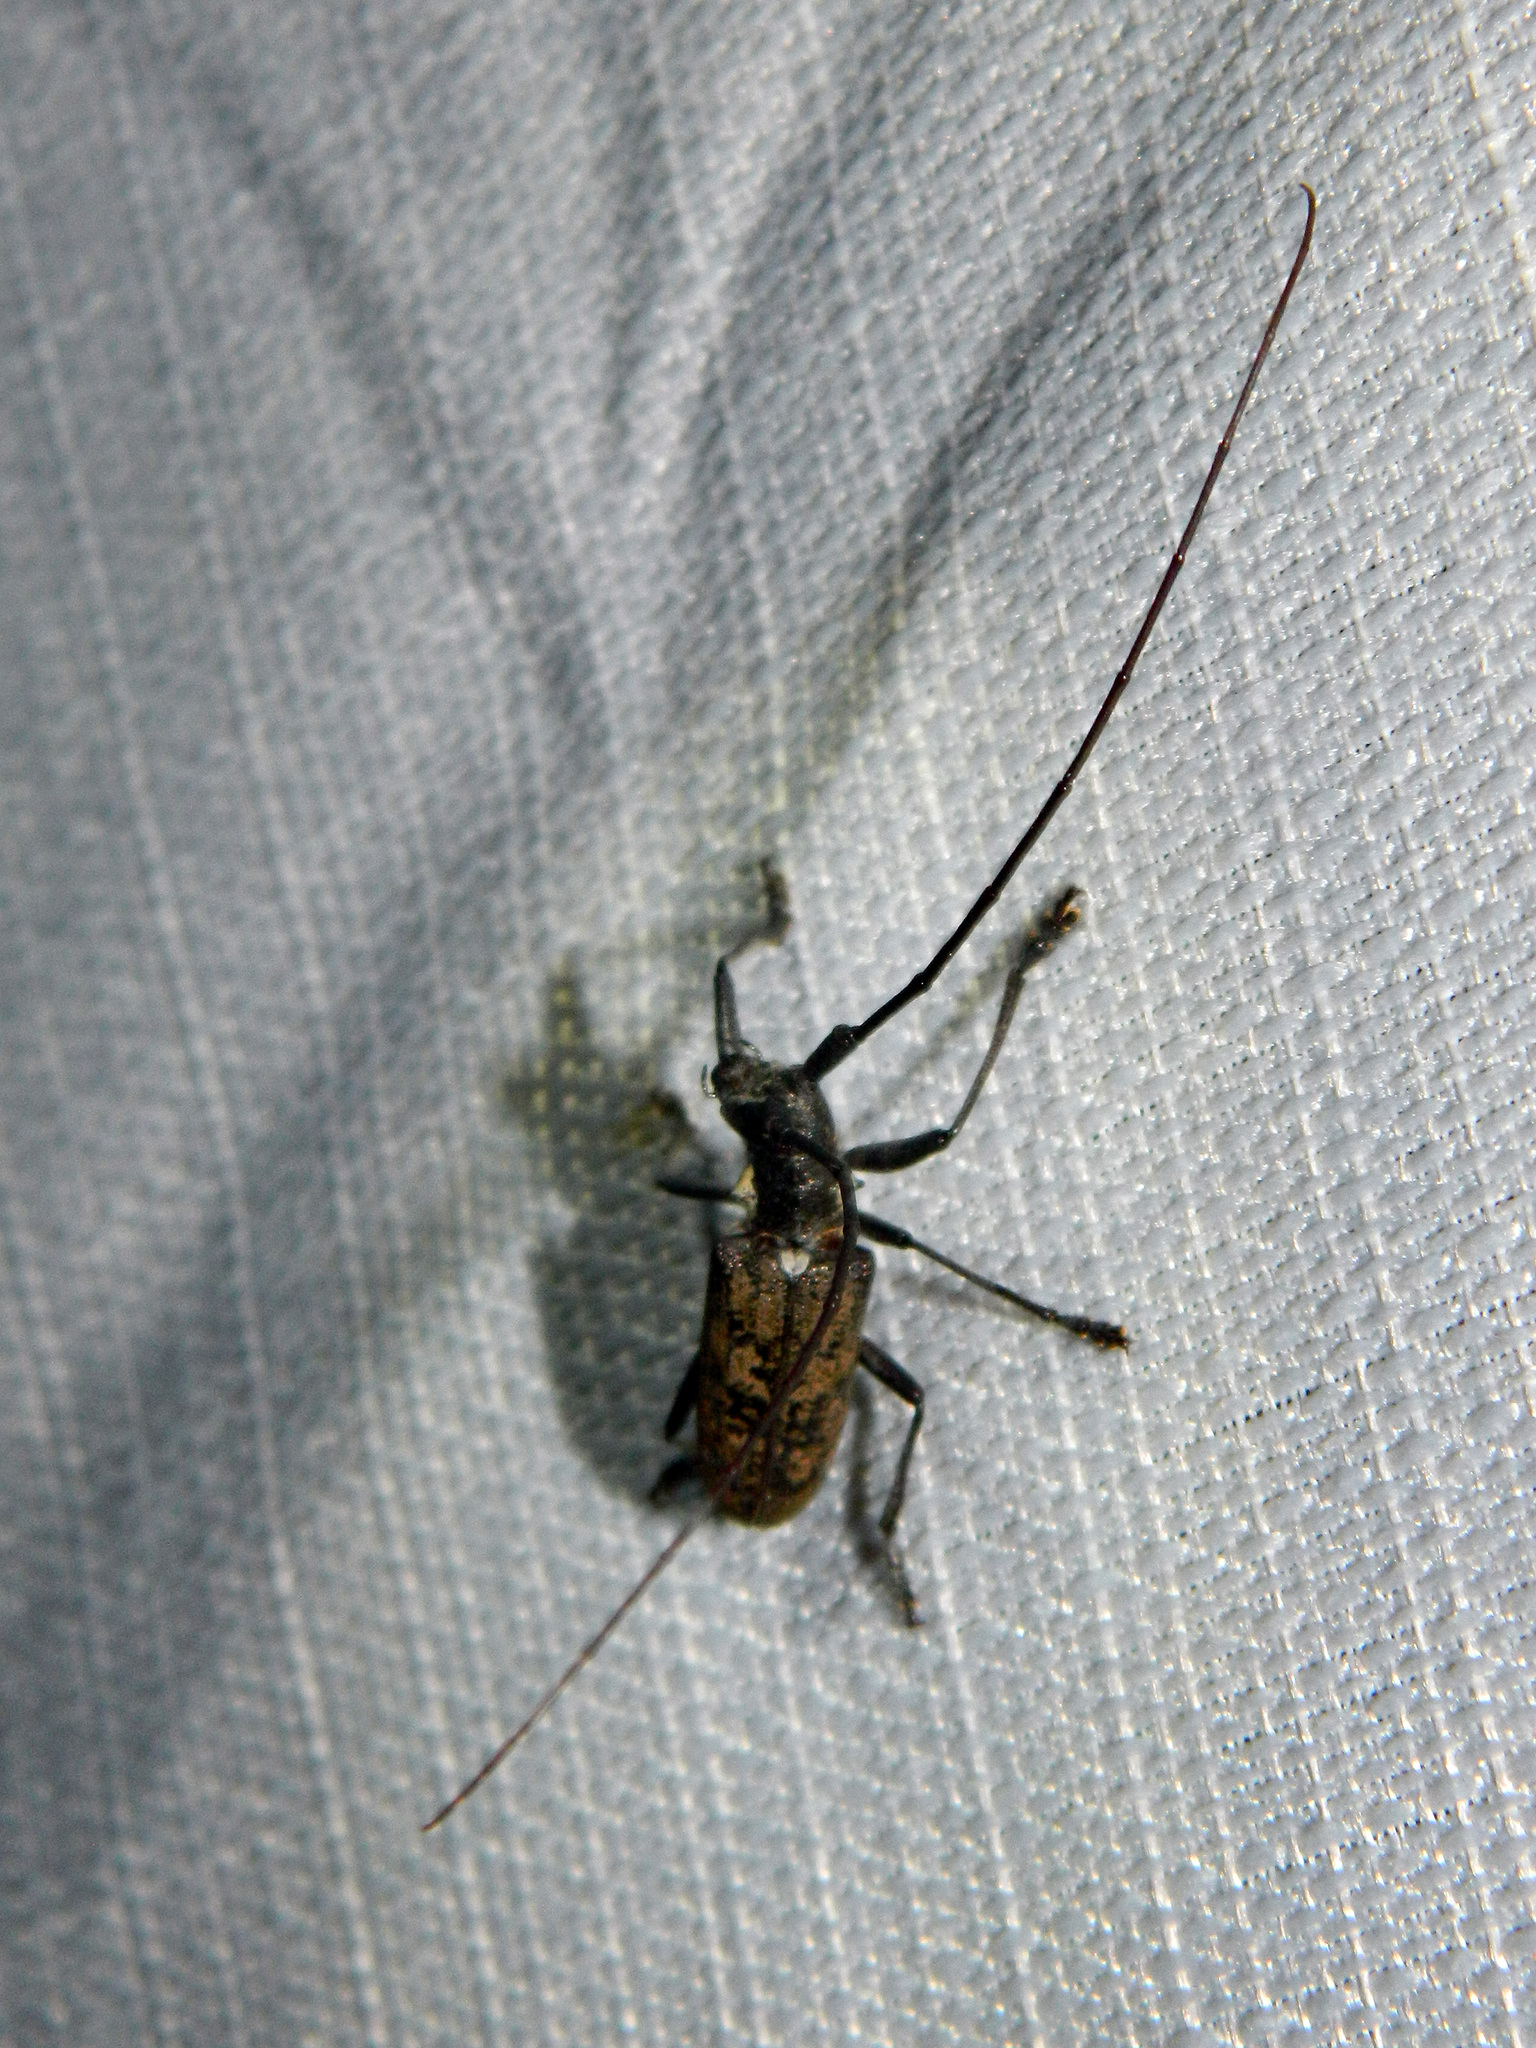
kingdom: Animalia
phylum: Arthropoda
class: Insecta
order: Coleoptera
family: Cerambycidae
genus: Monochamus
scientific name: Monochamus
